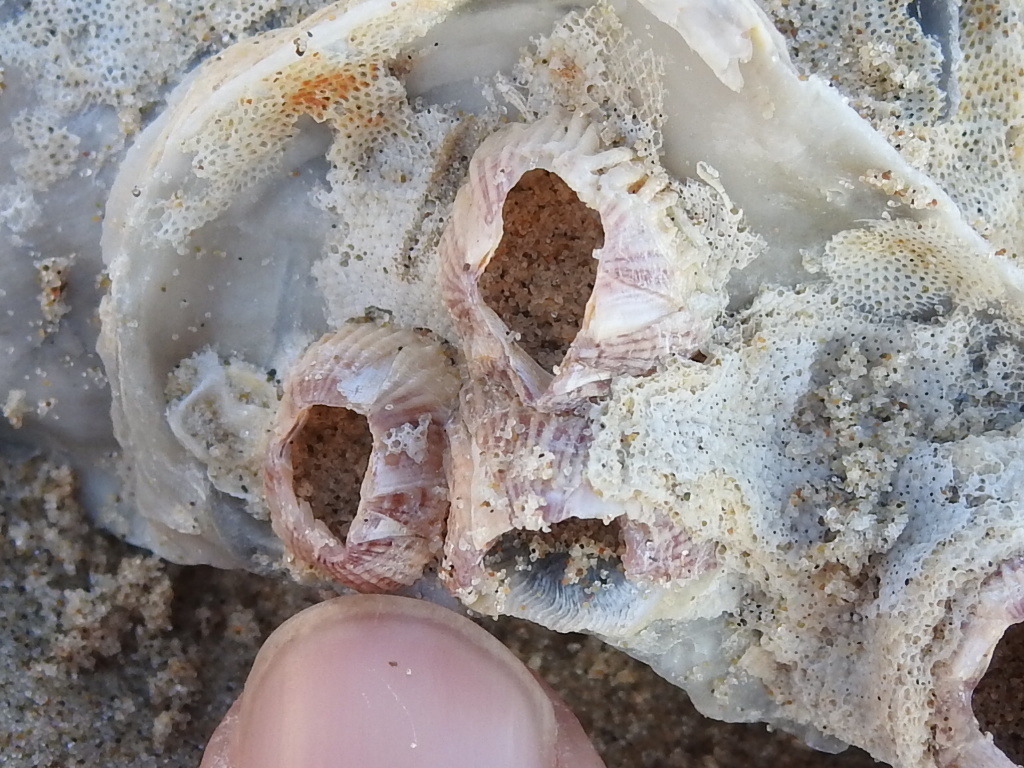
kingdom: Animalia
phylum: Arthropoda
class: Maxillopoda
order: Sessilia
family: Balanidae
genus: Balanus
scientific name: Balanus trigonus
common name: Triangle barnacle
